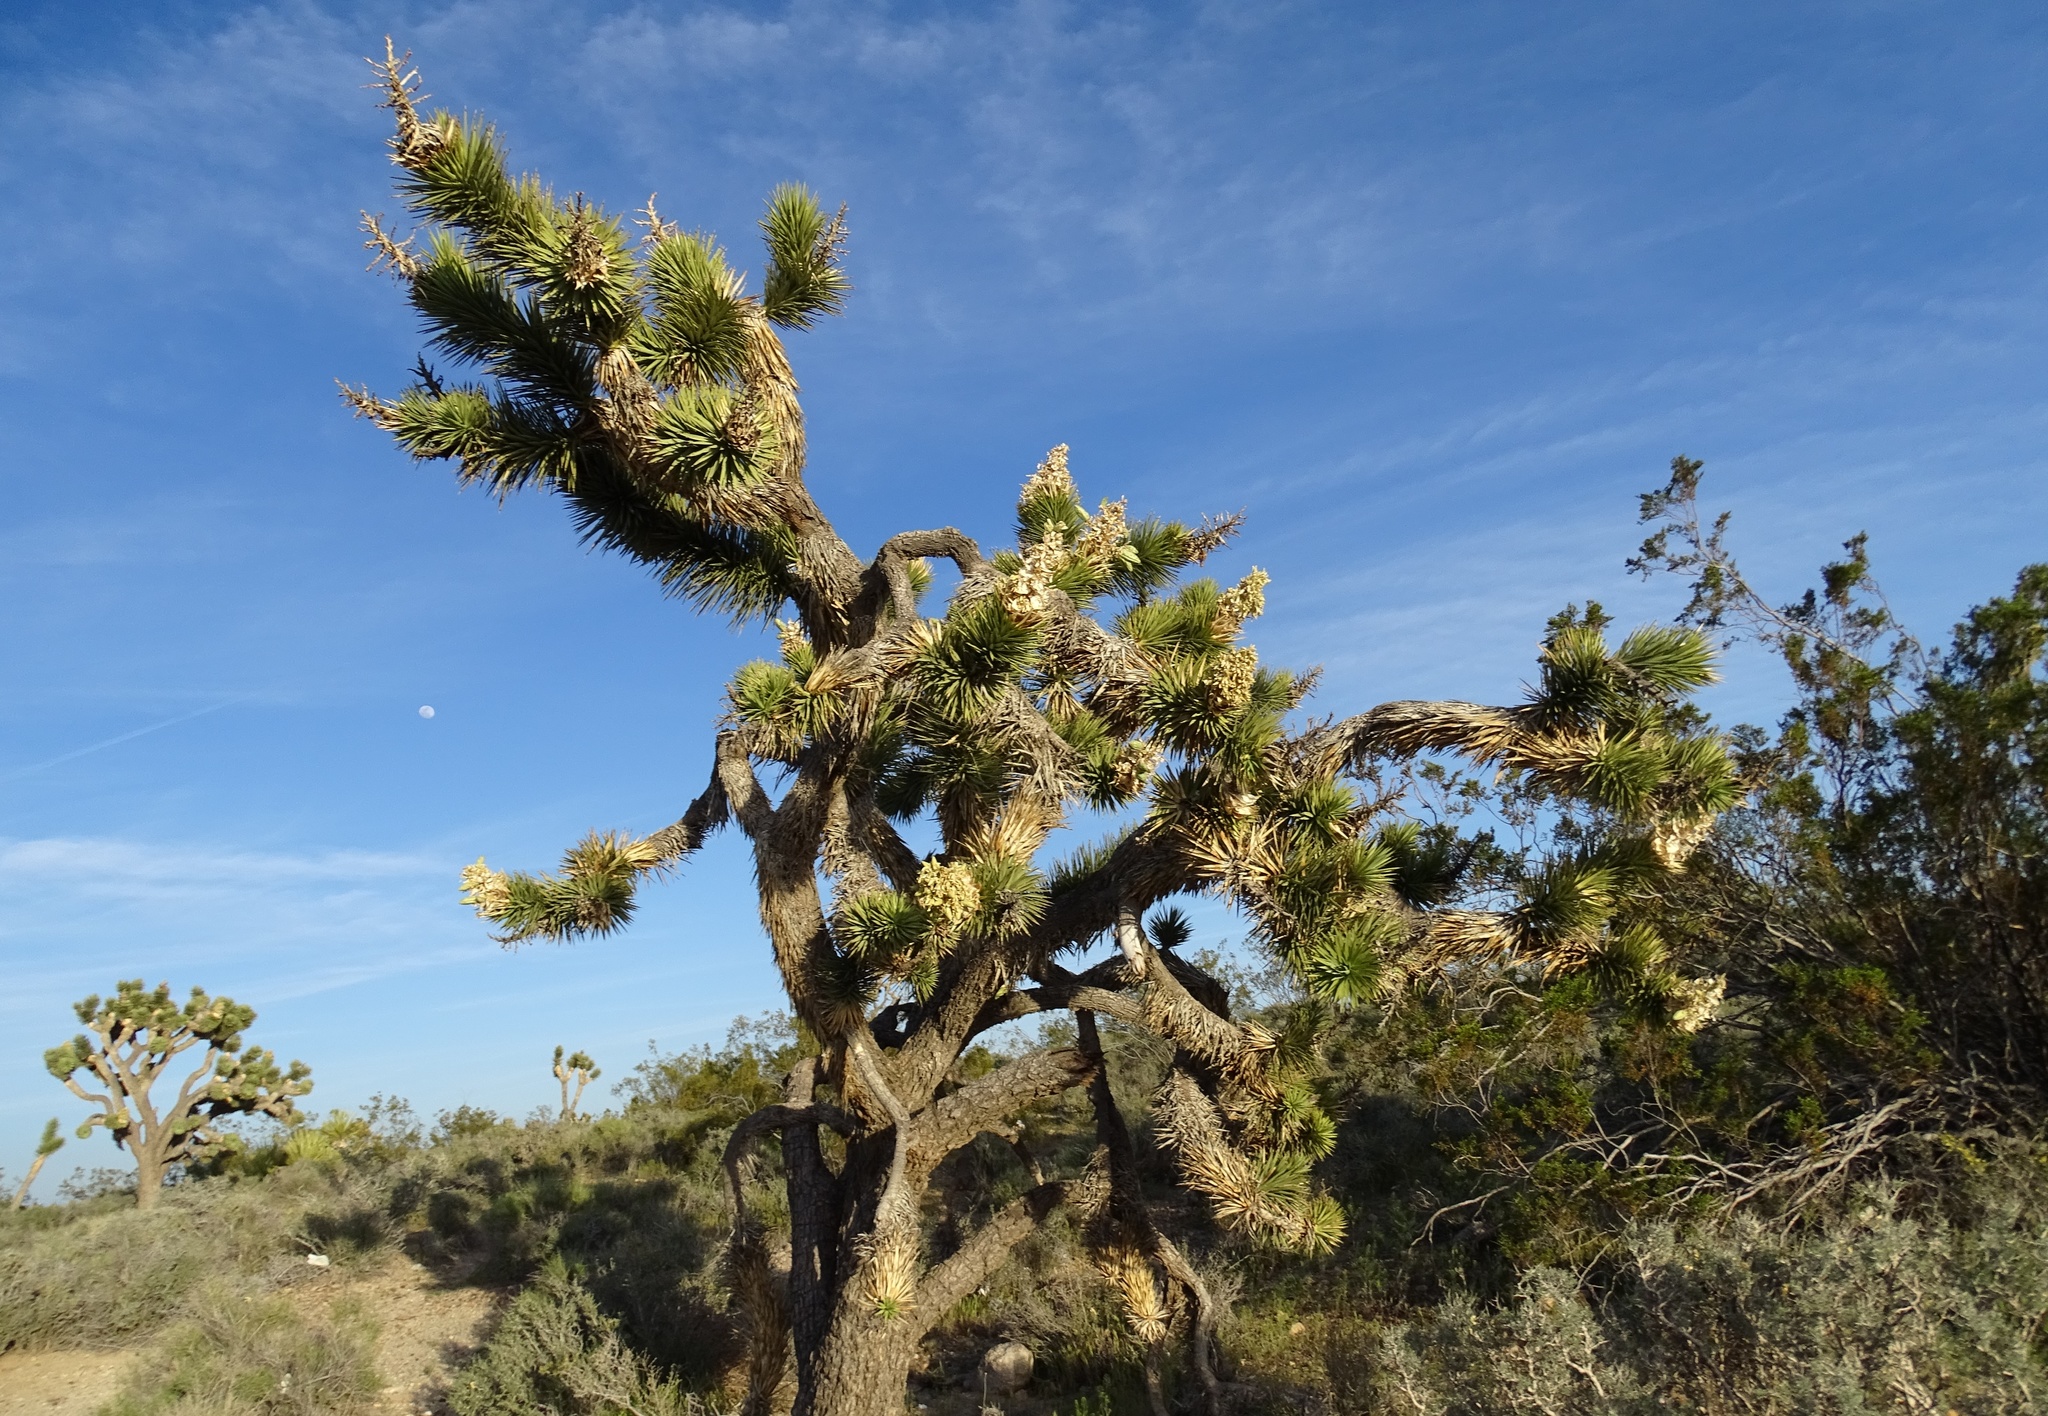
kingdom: Plantae
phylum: Tracheophyta
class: Liliopsida
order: Asparagales
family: Asparagaceae
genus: Yucca
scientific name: Yucca brevifolia
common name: Joshua tree
